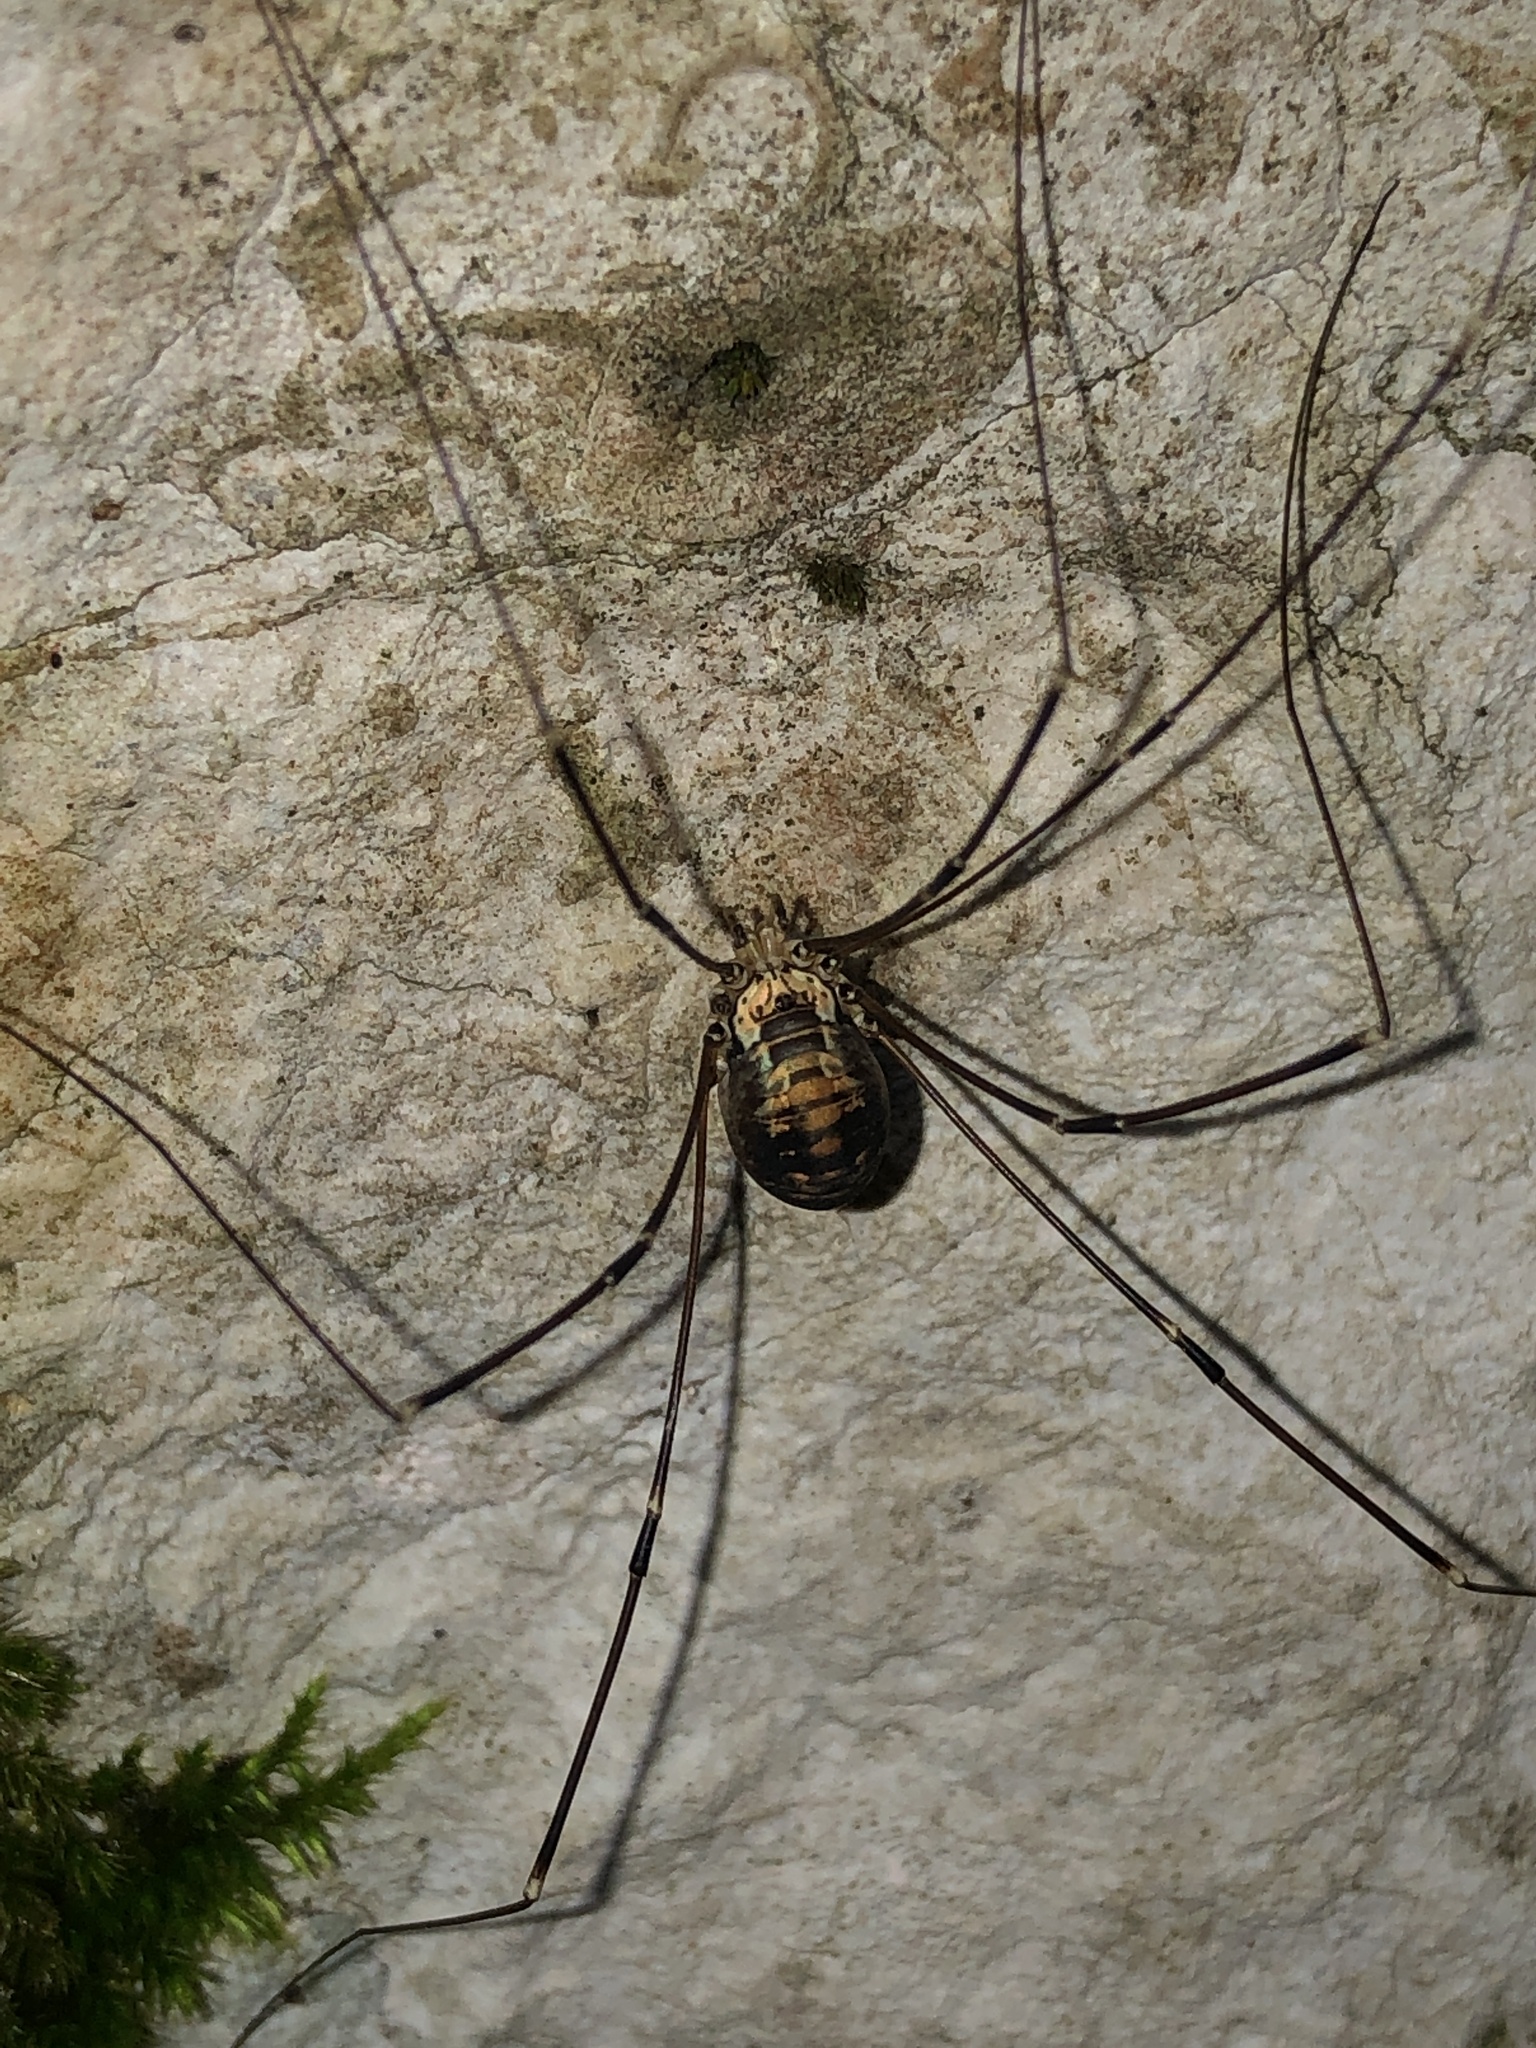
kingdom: Animalia
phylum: Arthropoda
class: Arachnida
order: Opiliones
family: Sclerosomatidae
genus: Leiobunum
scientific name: Leiobunum limbatum
